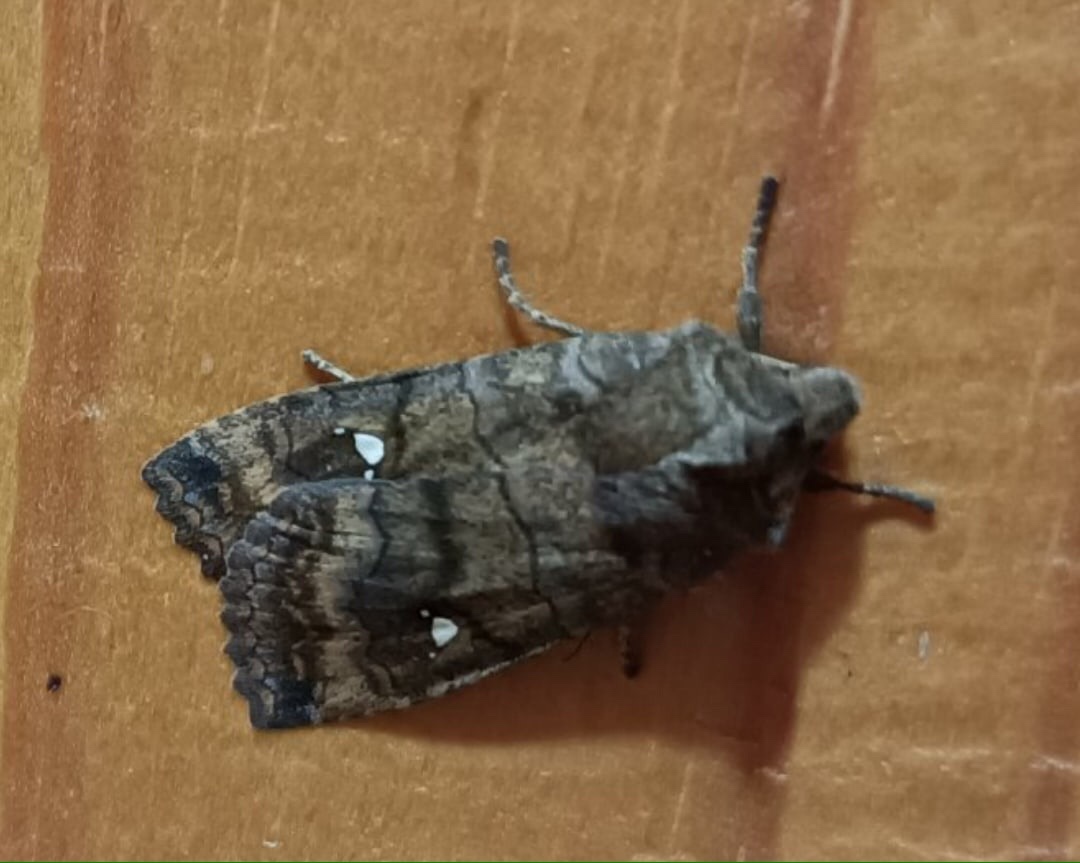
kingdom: Animalia
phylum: Arthropoda
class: Insecta
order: Lepidoptera
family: Noctuidae
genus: Eupsilia
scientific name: Eupsilia transversa
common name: Satellite
